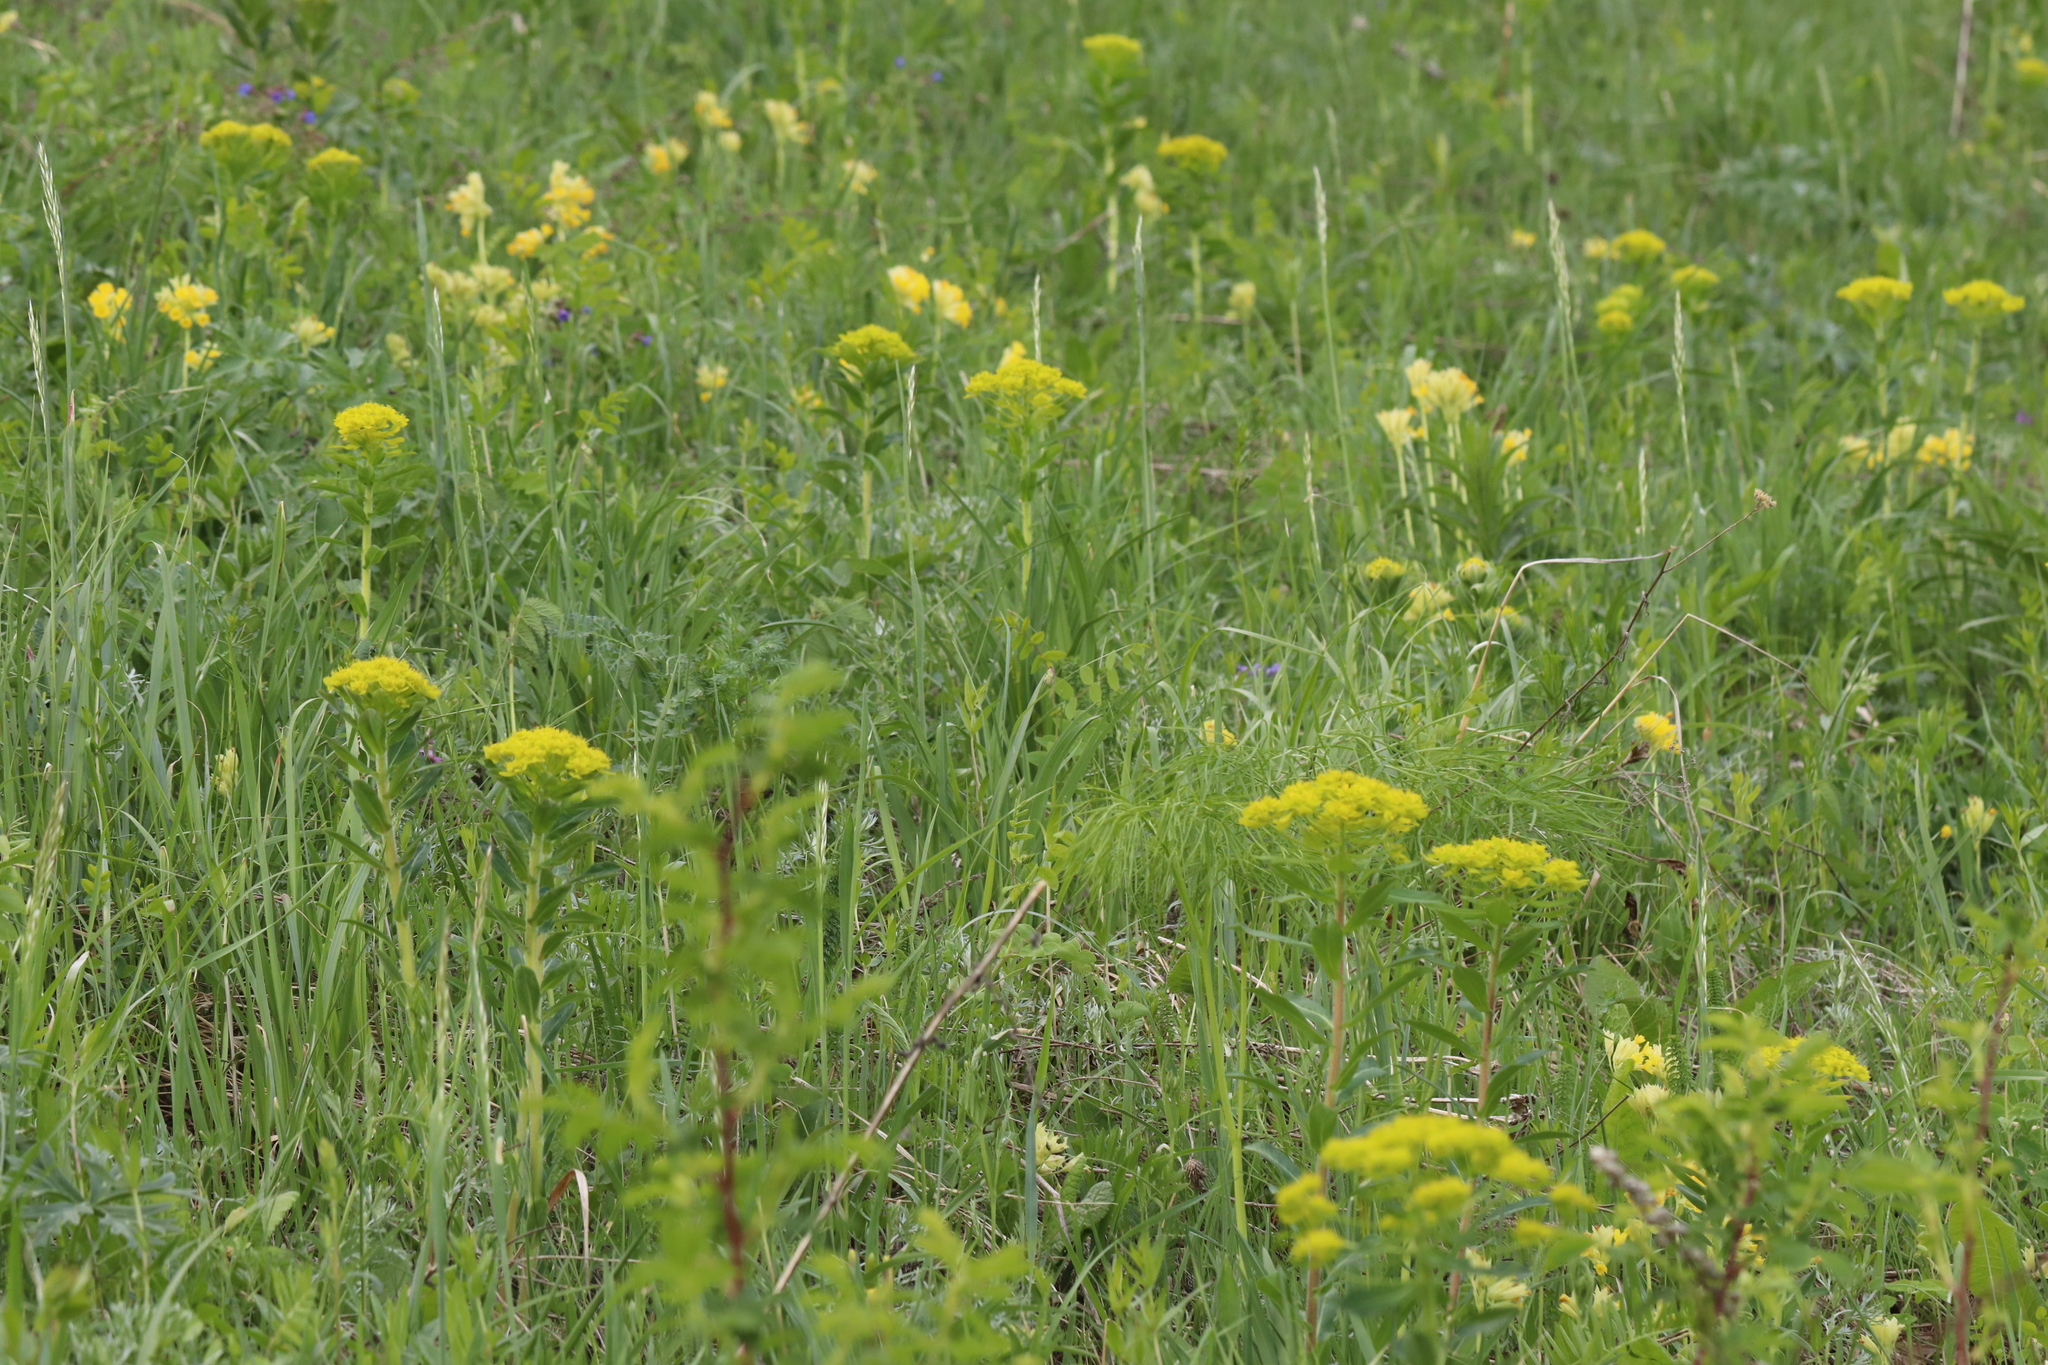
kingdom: Plantae
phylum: Tracheophyta
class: Magnoliopsida
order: Malpighiales
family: Euphorbiaceae
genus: Euphorbia
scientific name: Euphorbia pilosa
